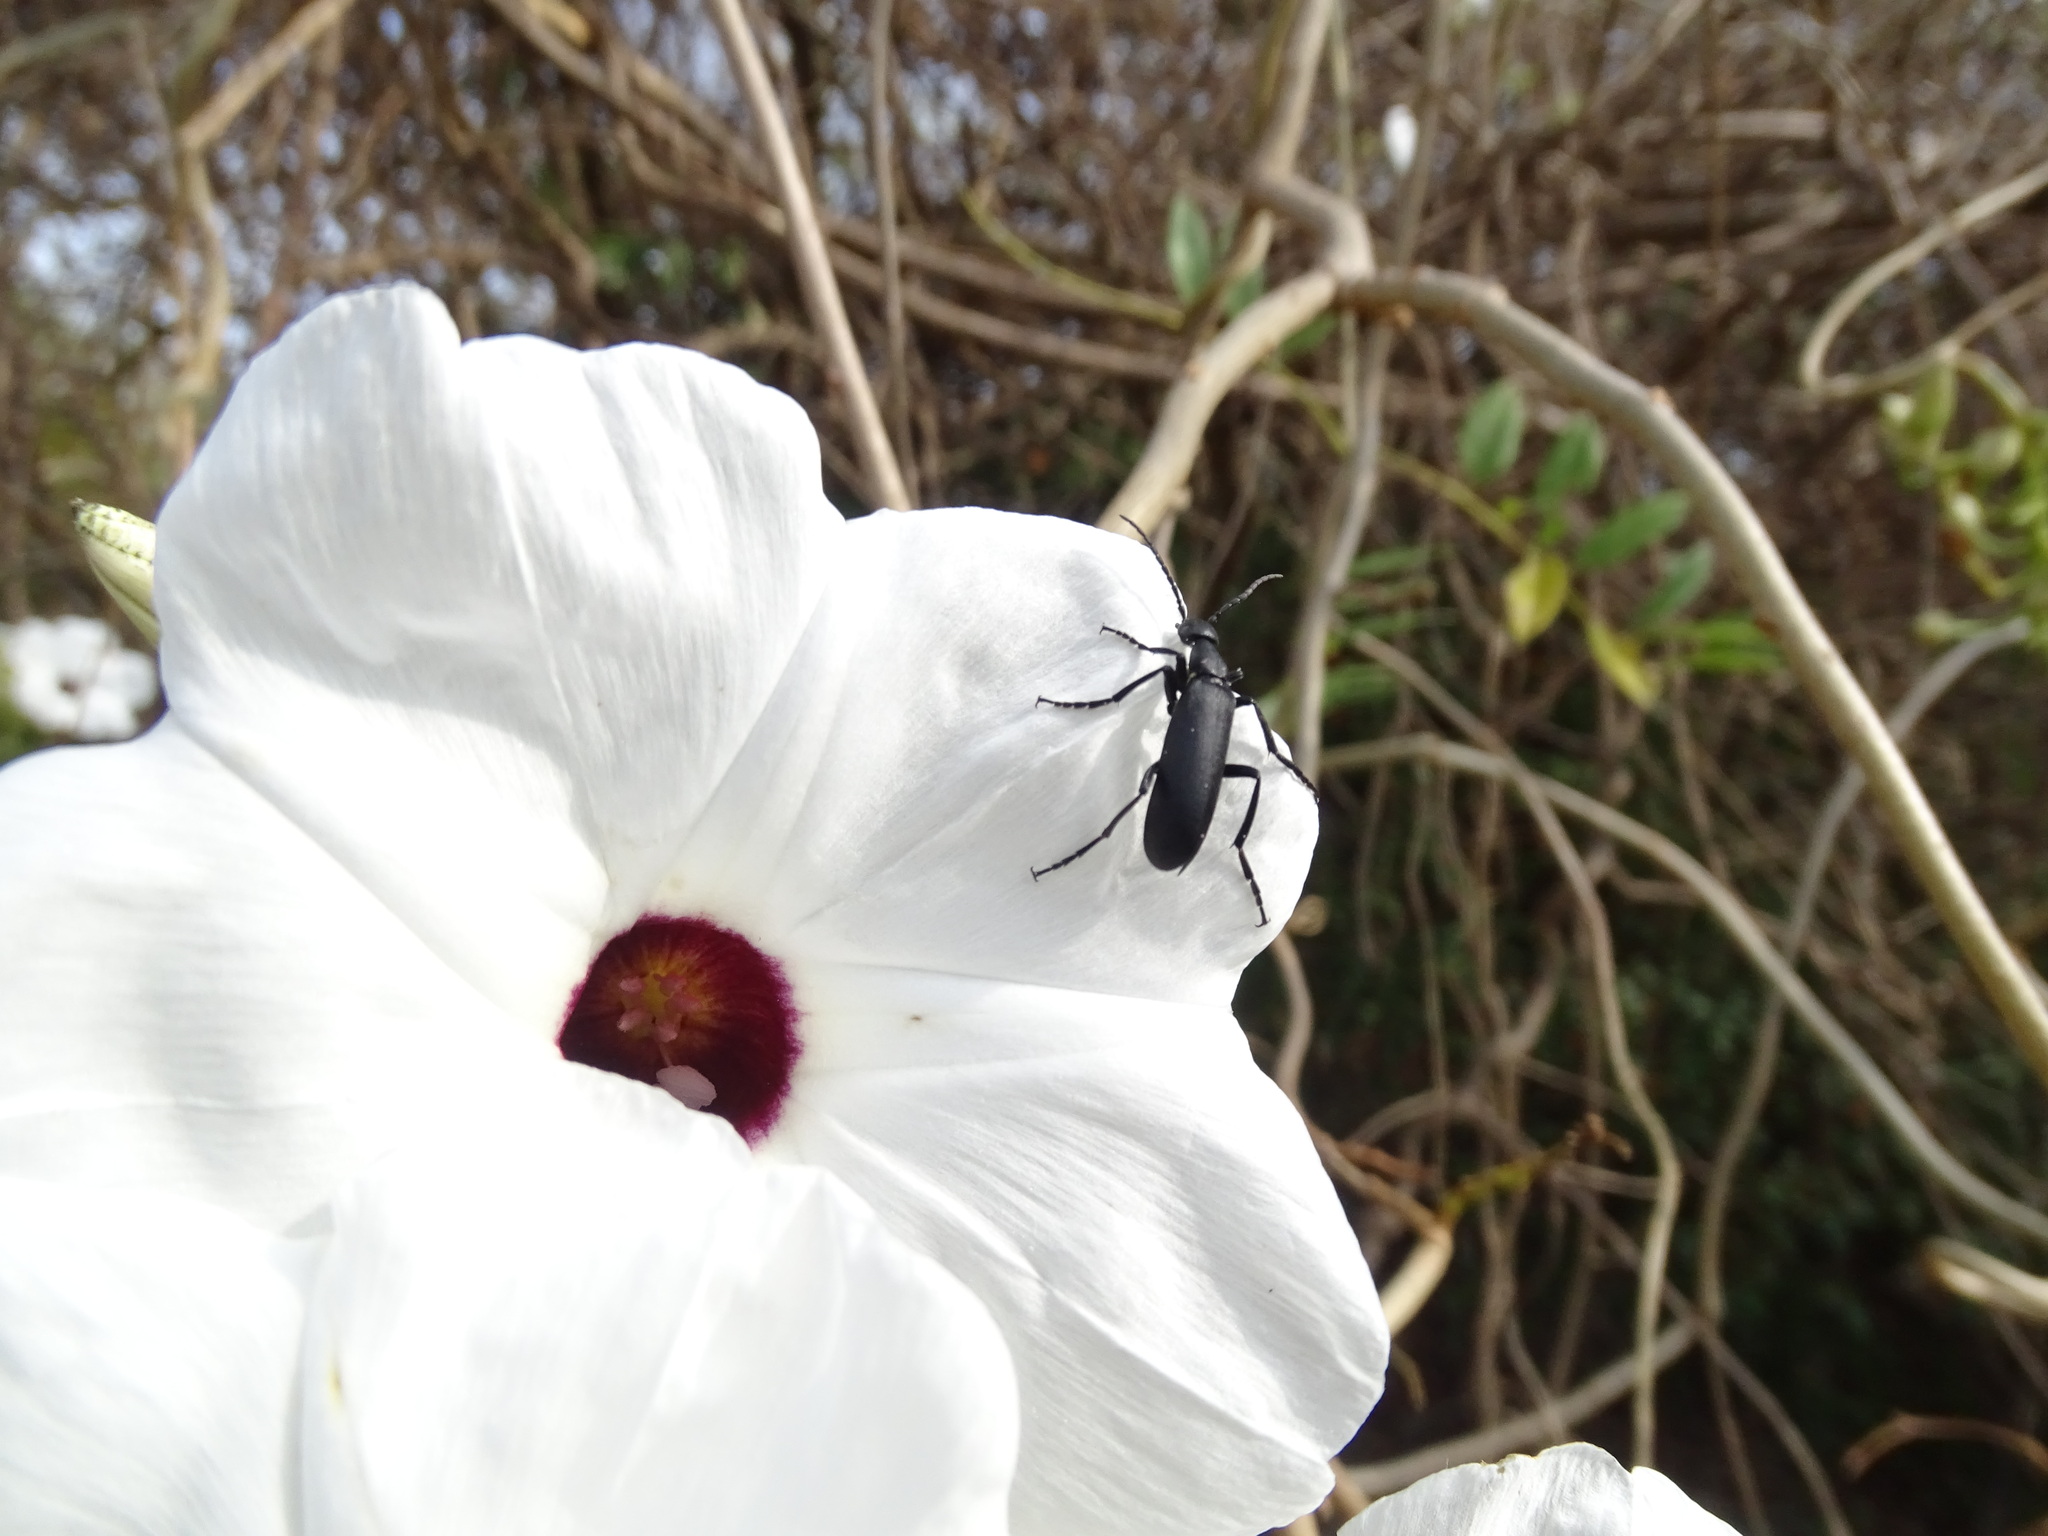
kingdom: Plantae
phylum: Tracheophyta
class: Magnoliopsida
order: Solanales
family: Convolvulaceae
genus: Ipomoea
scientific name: Ipomoea populina
